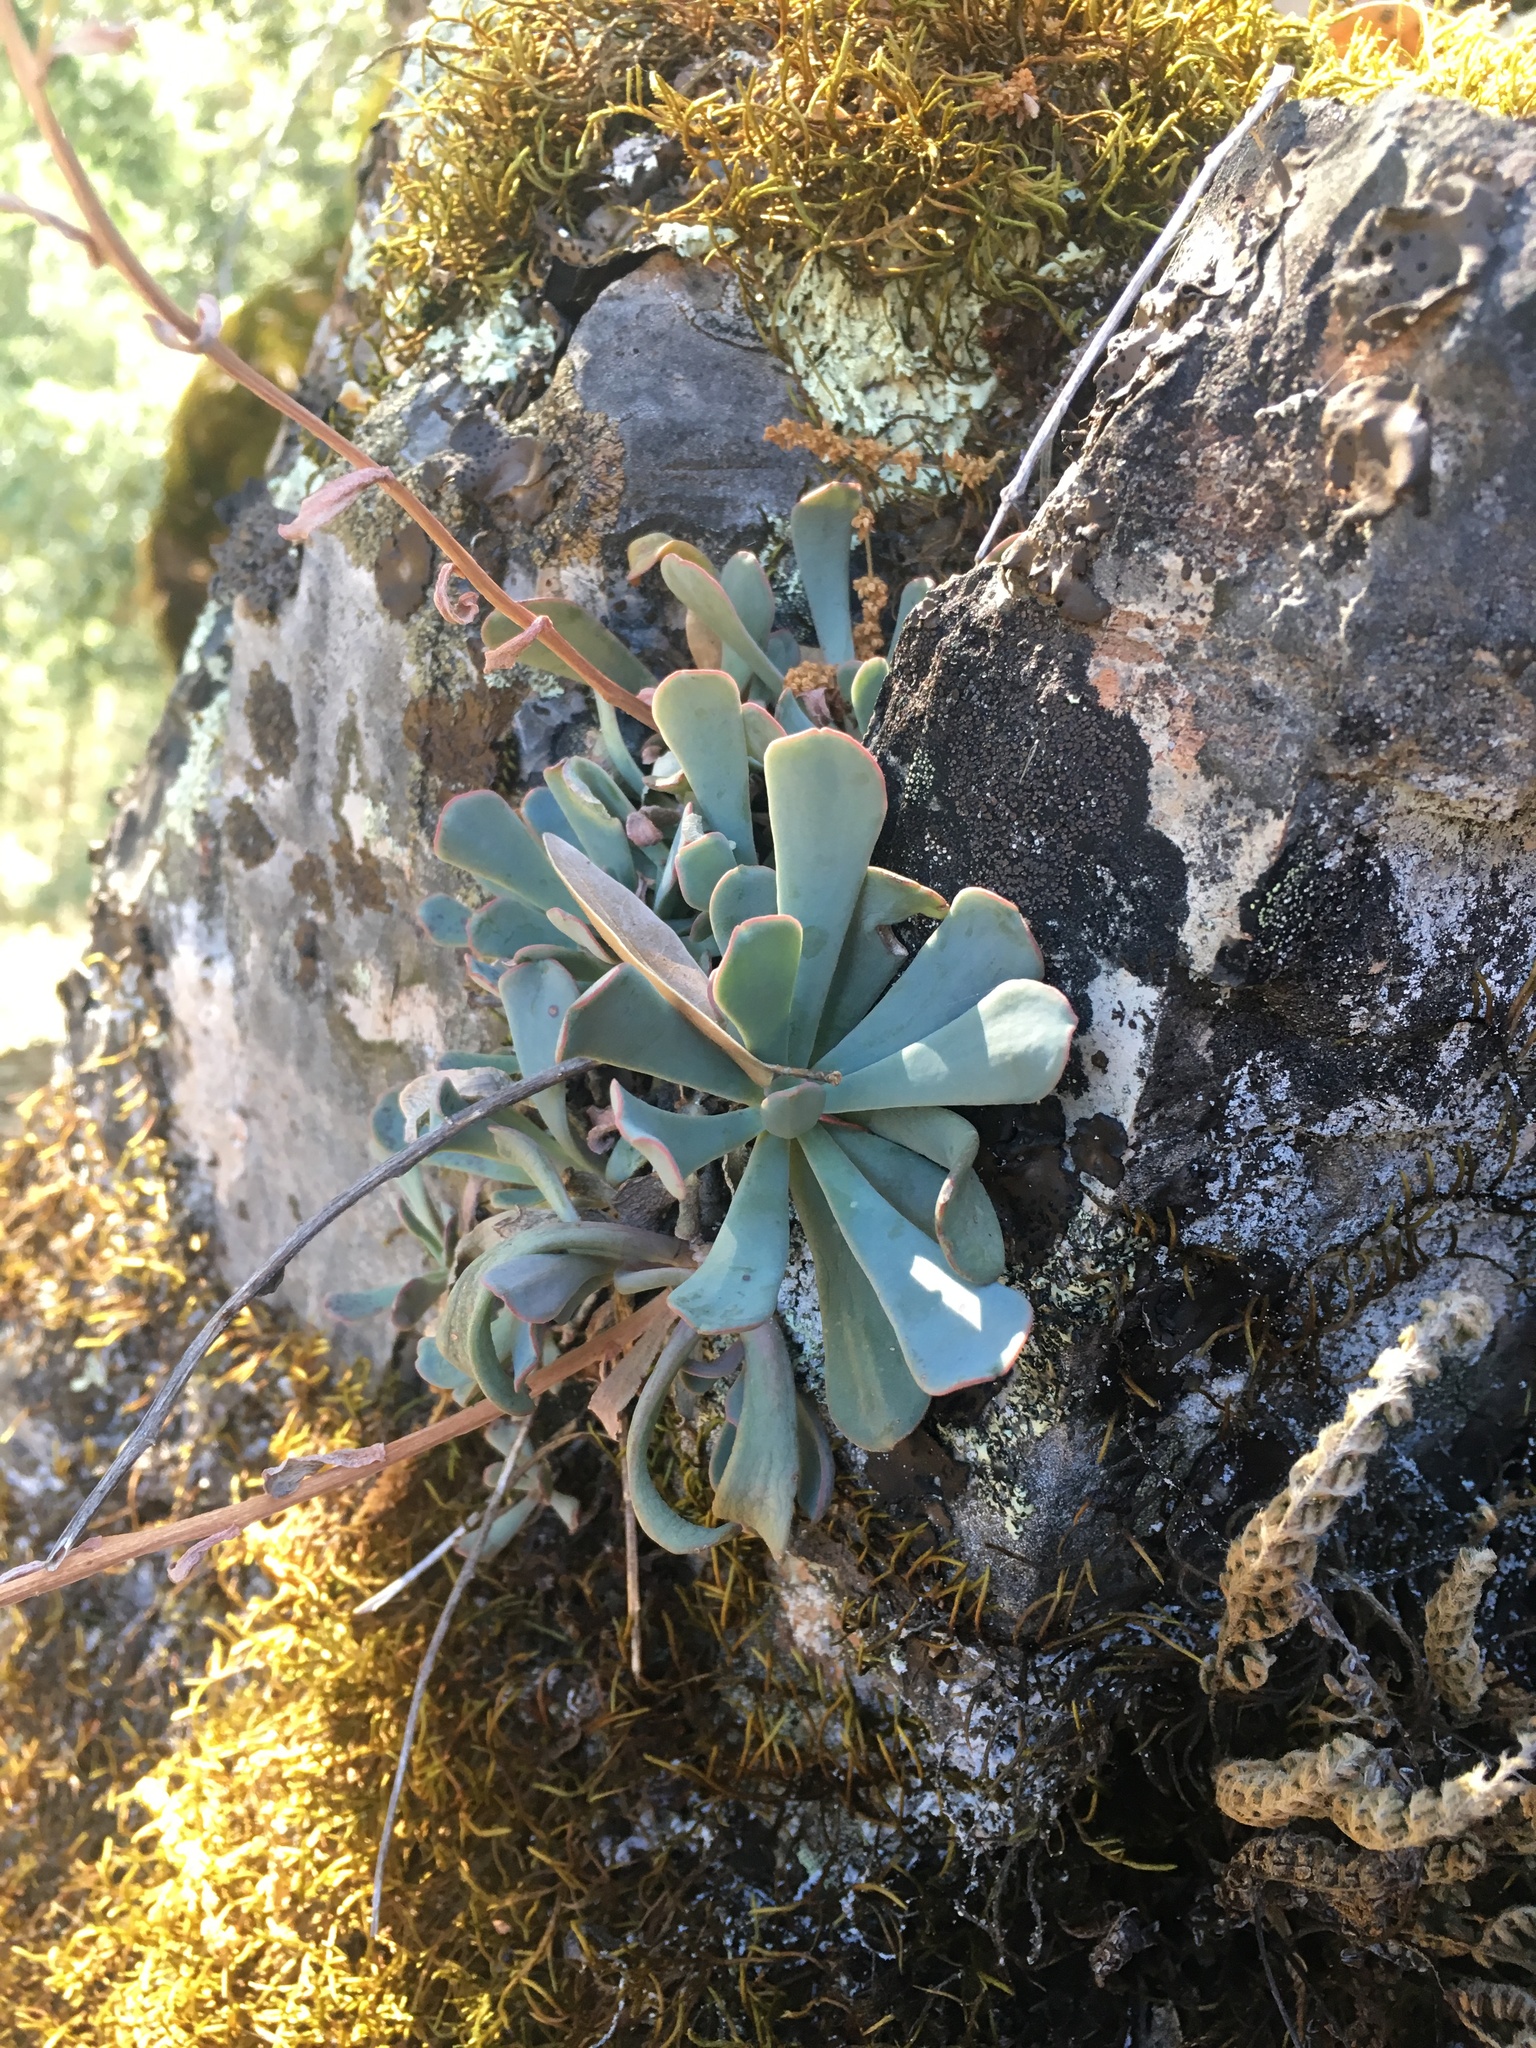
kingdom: Plantae
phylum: Tracheophyta
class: Magnoliopsida
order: Saxifragales
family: Crassulaceae
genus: Sedum
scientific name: Sedum paradisum
